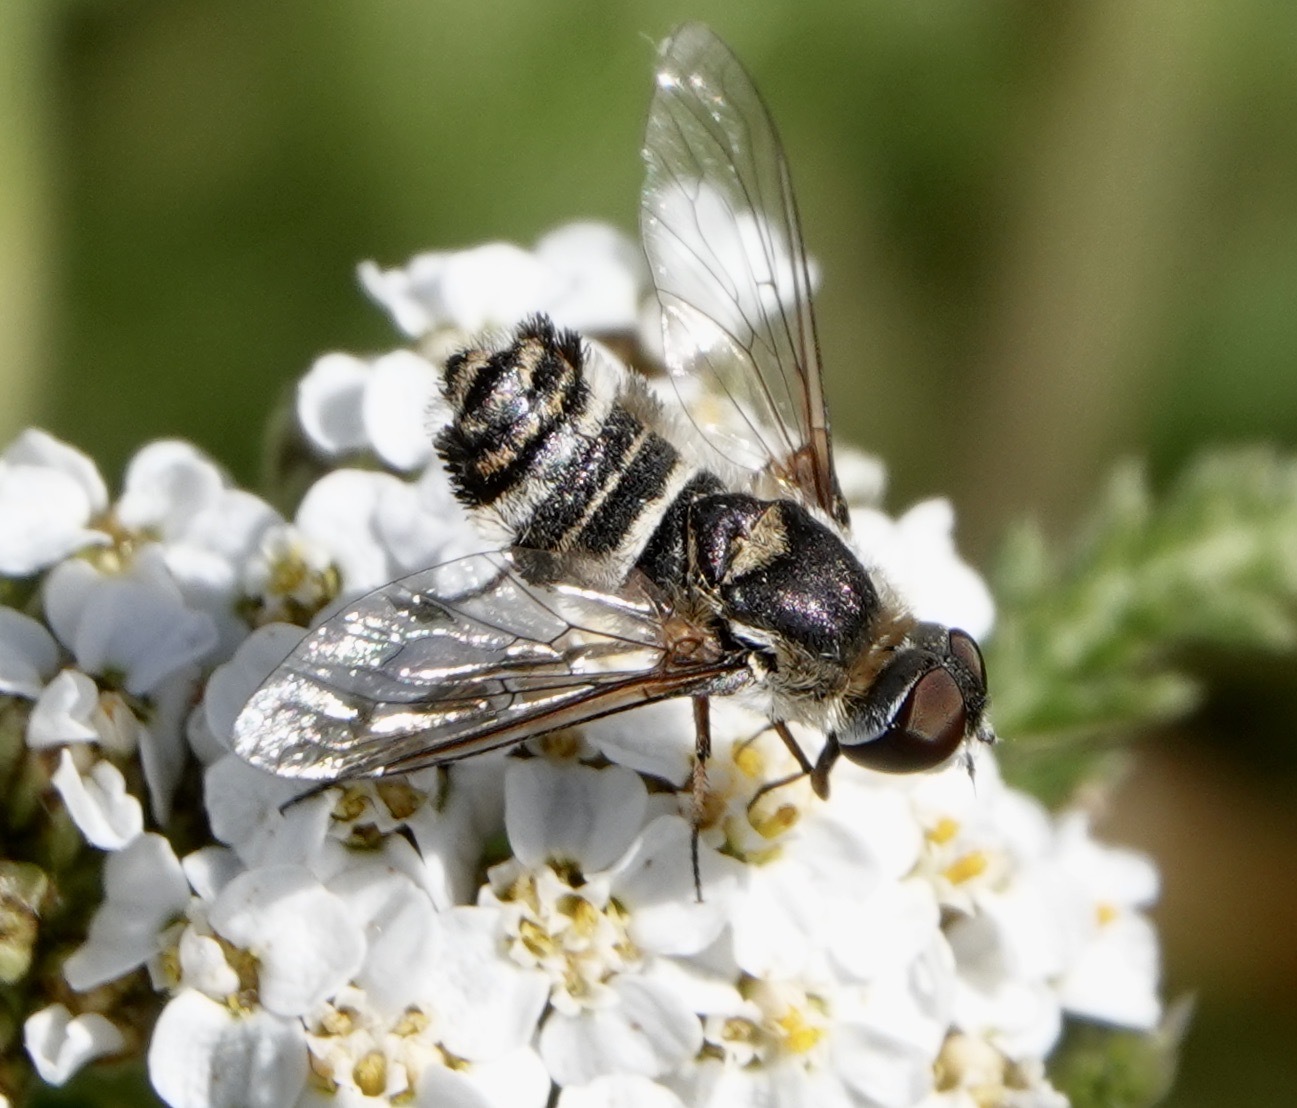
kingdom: Animalia
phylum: Arthropoda
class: Insecta
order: Diptera
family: Bombyliidae
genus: Villa
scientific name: Villa lateralis
